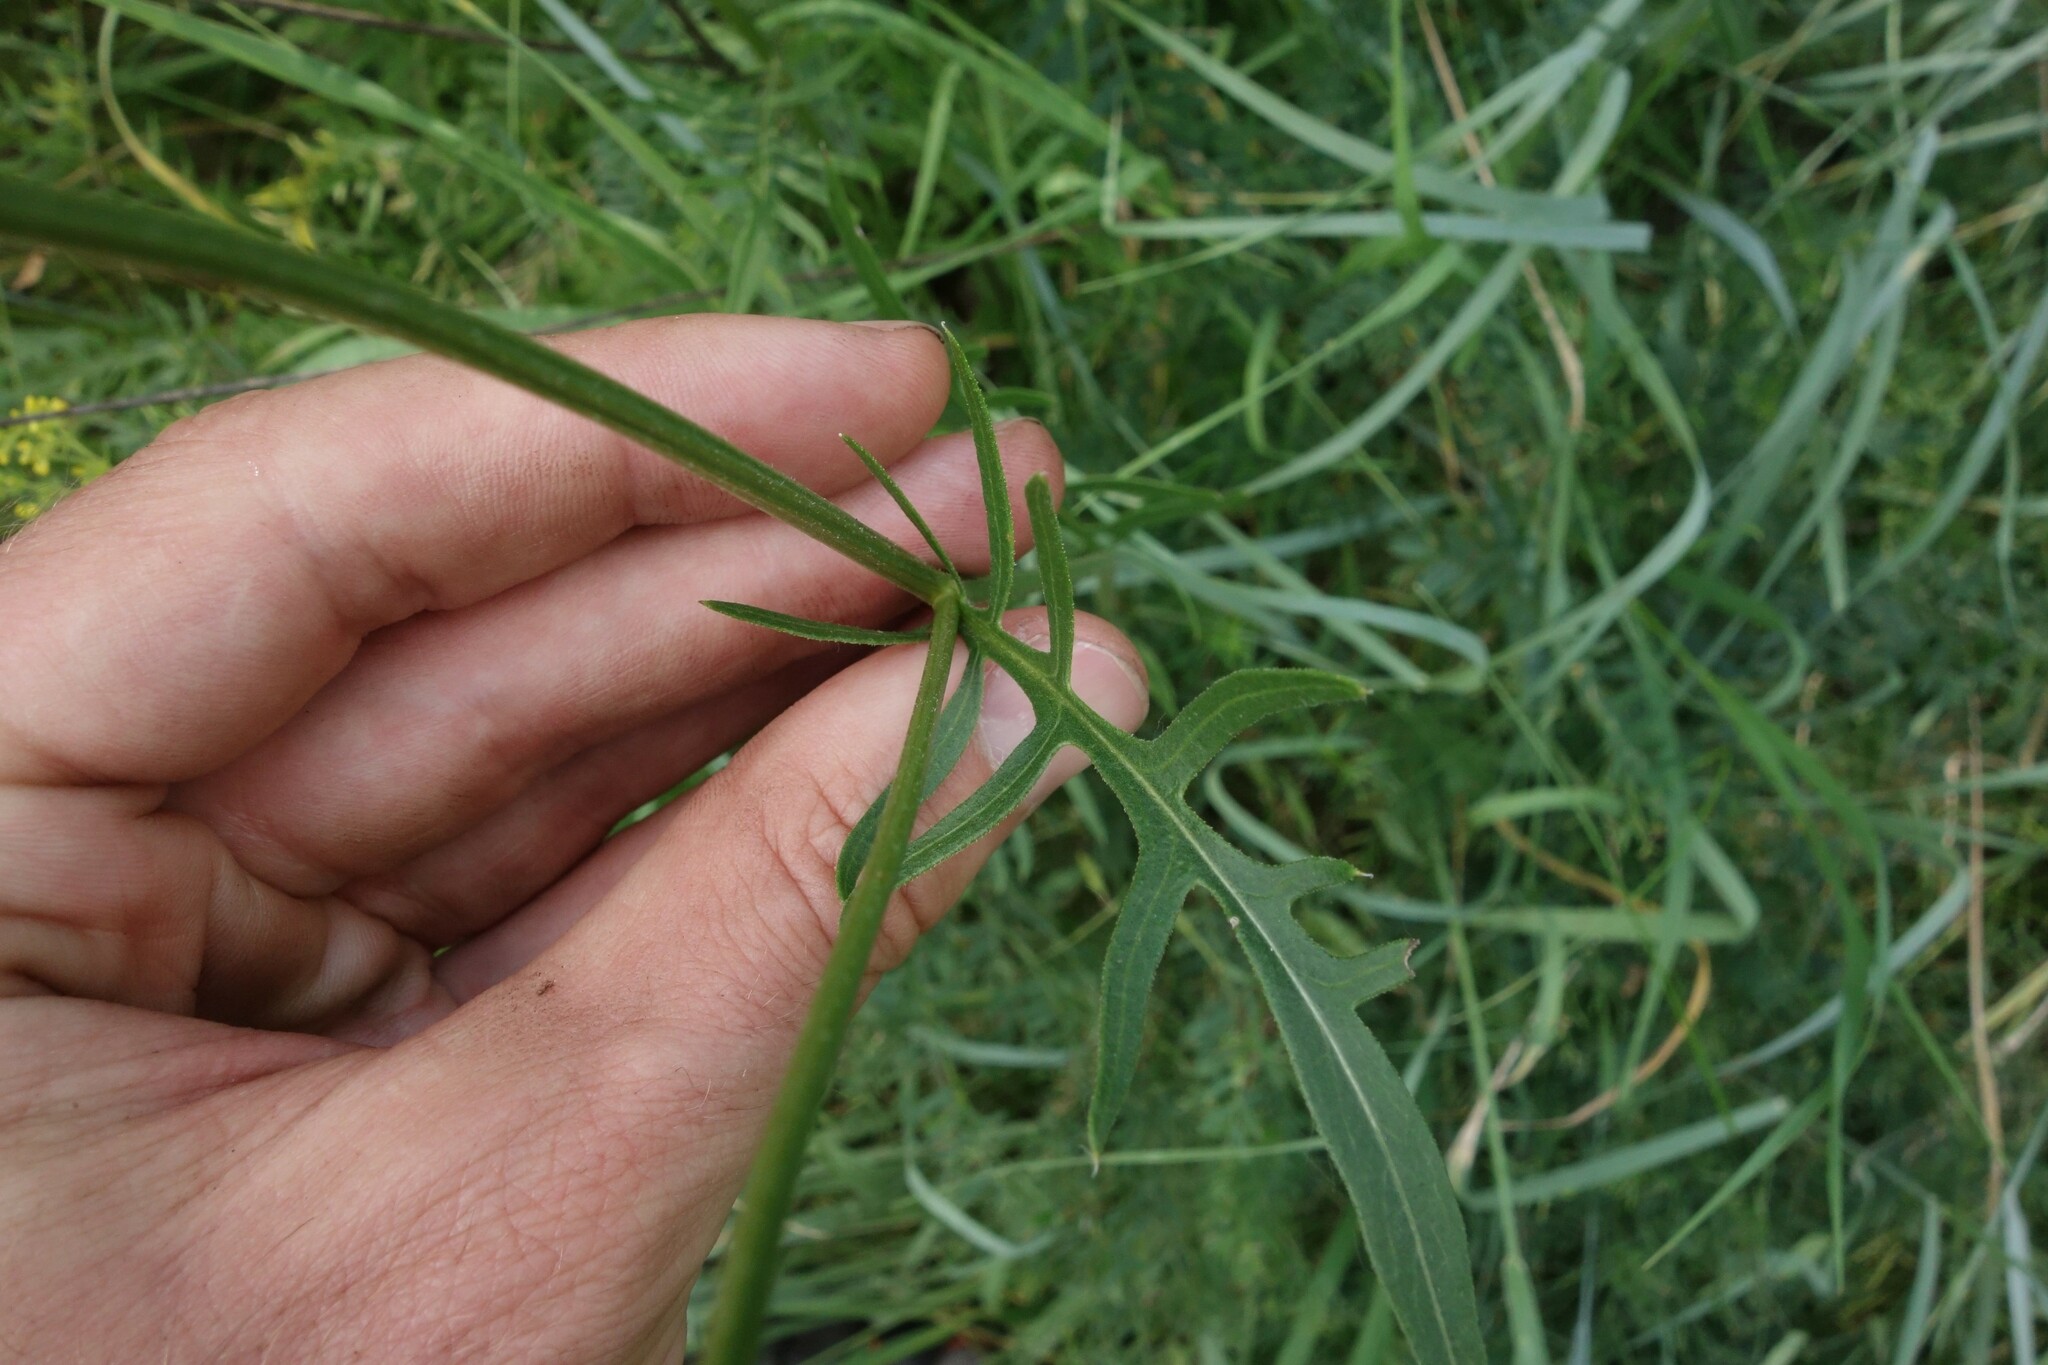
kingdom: Plantae
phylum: Tracheophyta
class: Magnoliopsida
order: Asterales
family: Asteraceae
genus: Klasea
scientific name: Klasea radiata
